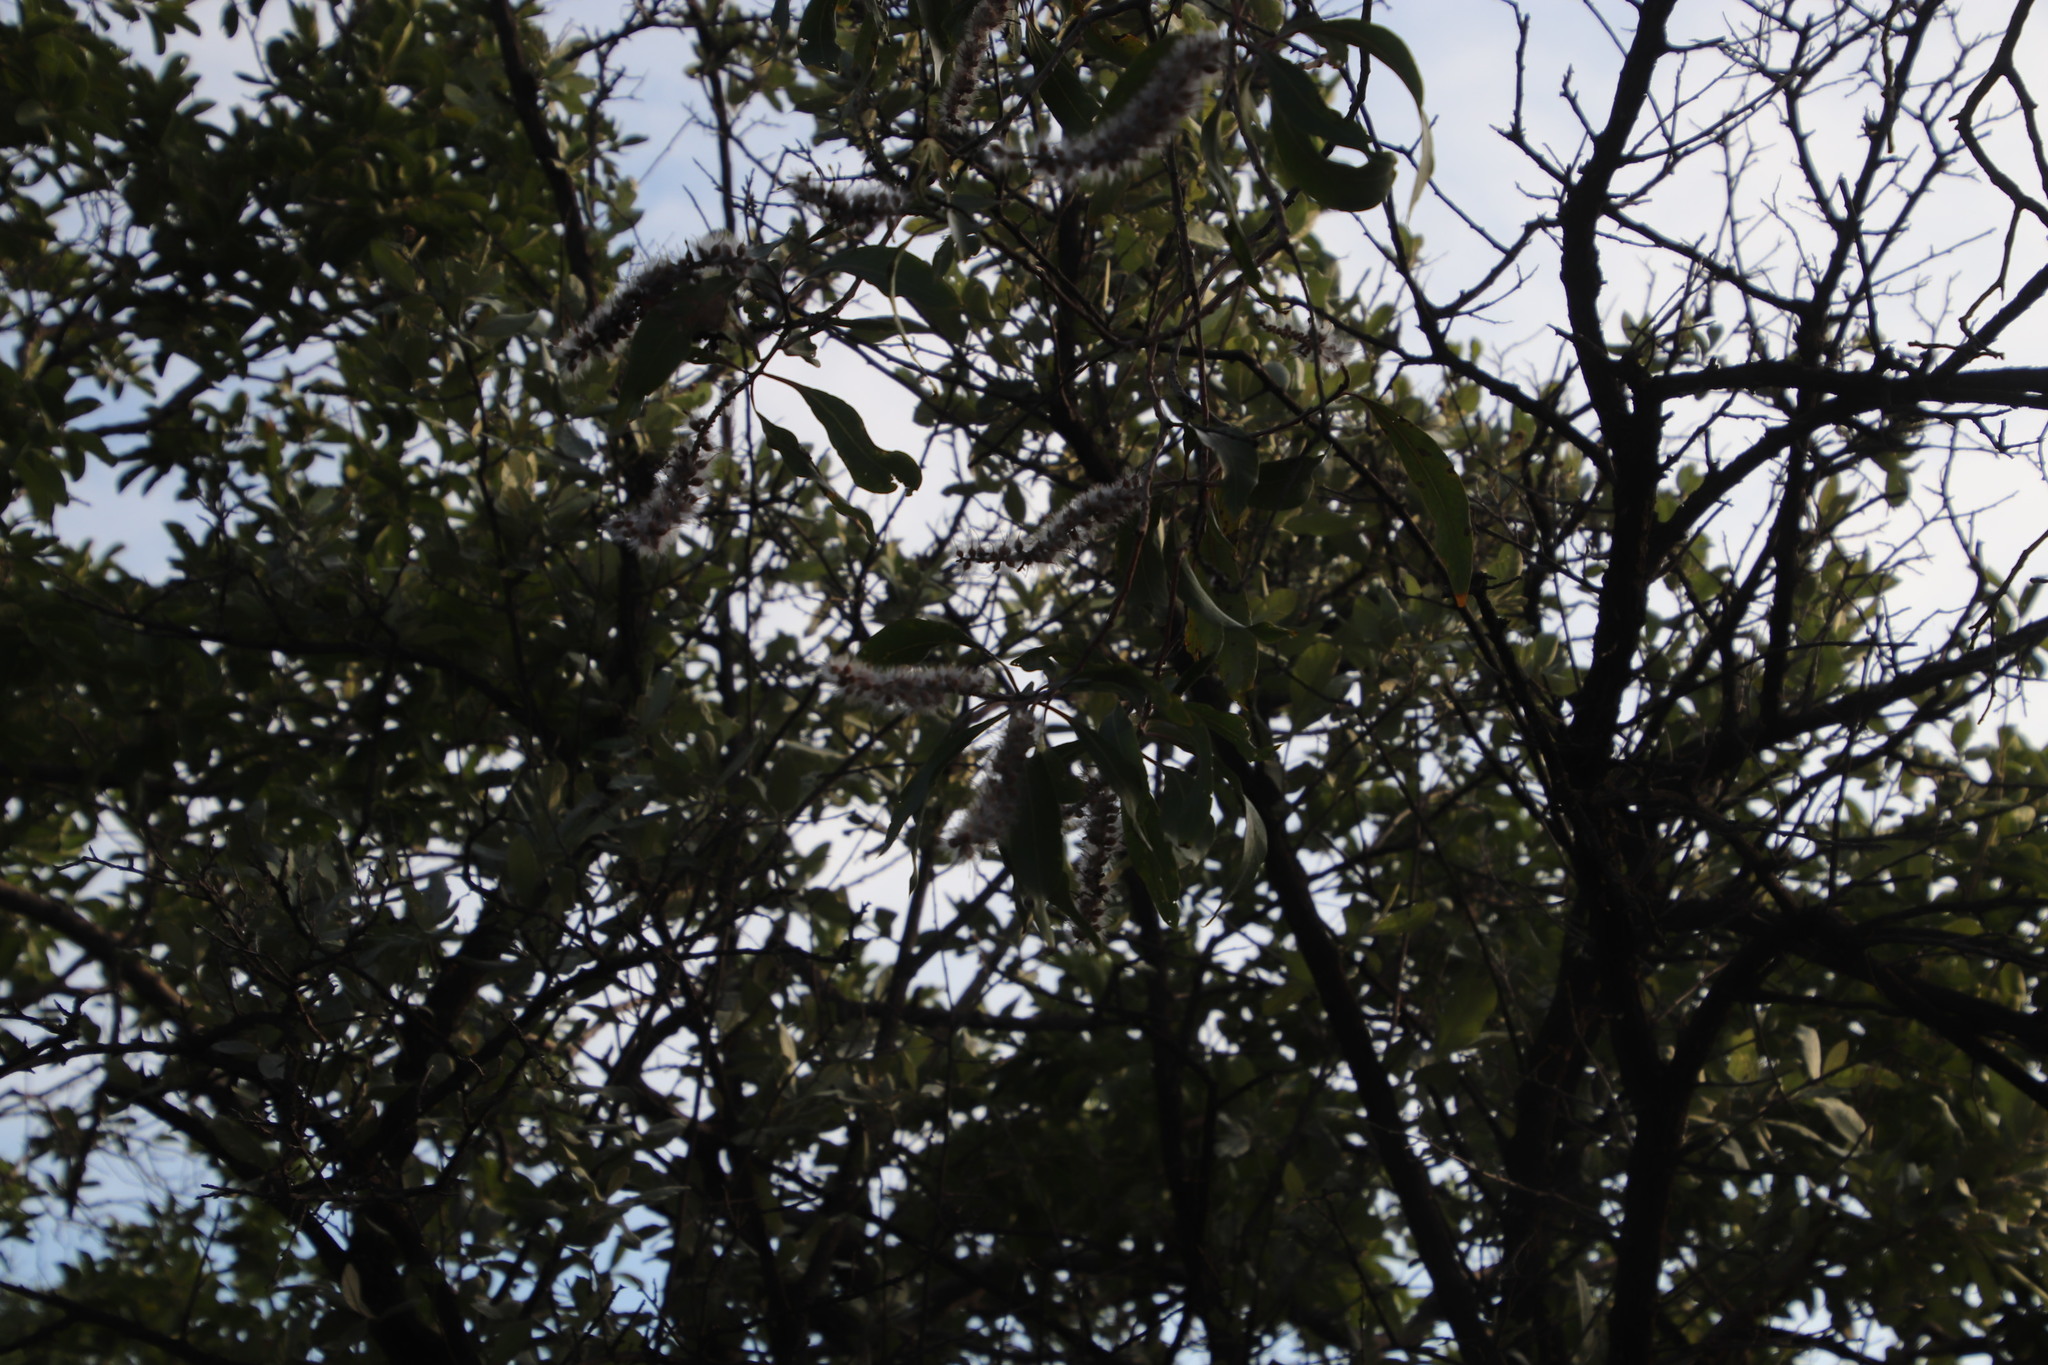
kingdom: Plantae
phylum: Tracheophyta
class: Magnoliopsida
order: Proteales
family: Proteaceae
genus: Faurea
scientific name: Faurea saligna
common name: African bean
